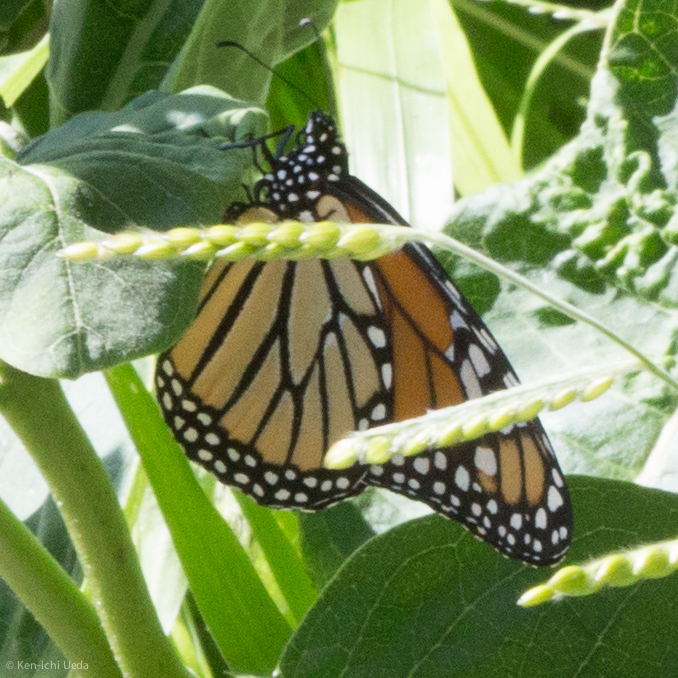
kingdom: Animalia
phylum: Arthropoda
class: Insecta
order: Lepidoptera
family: Nymphalidae
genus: Danaus
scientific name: Danaus plexippus
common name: Monarch
